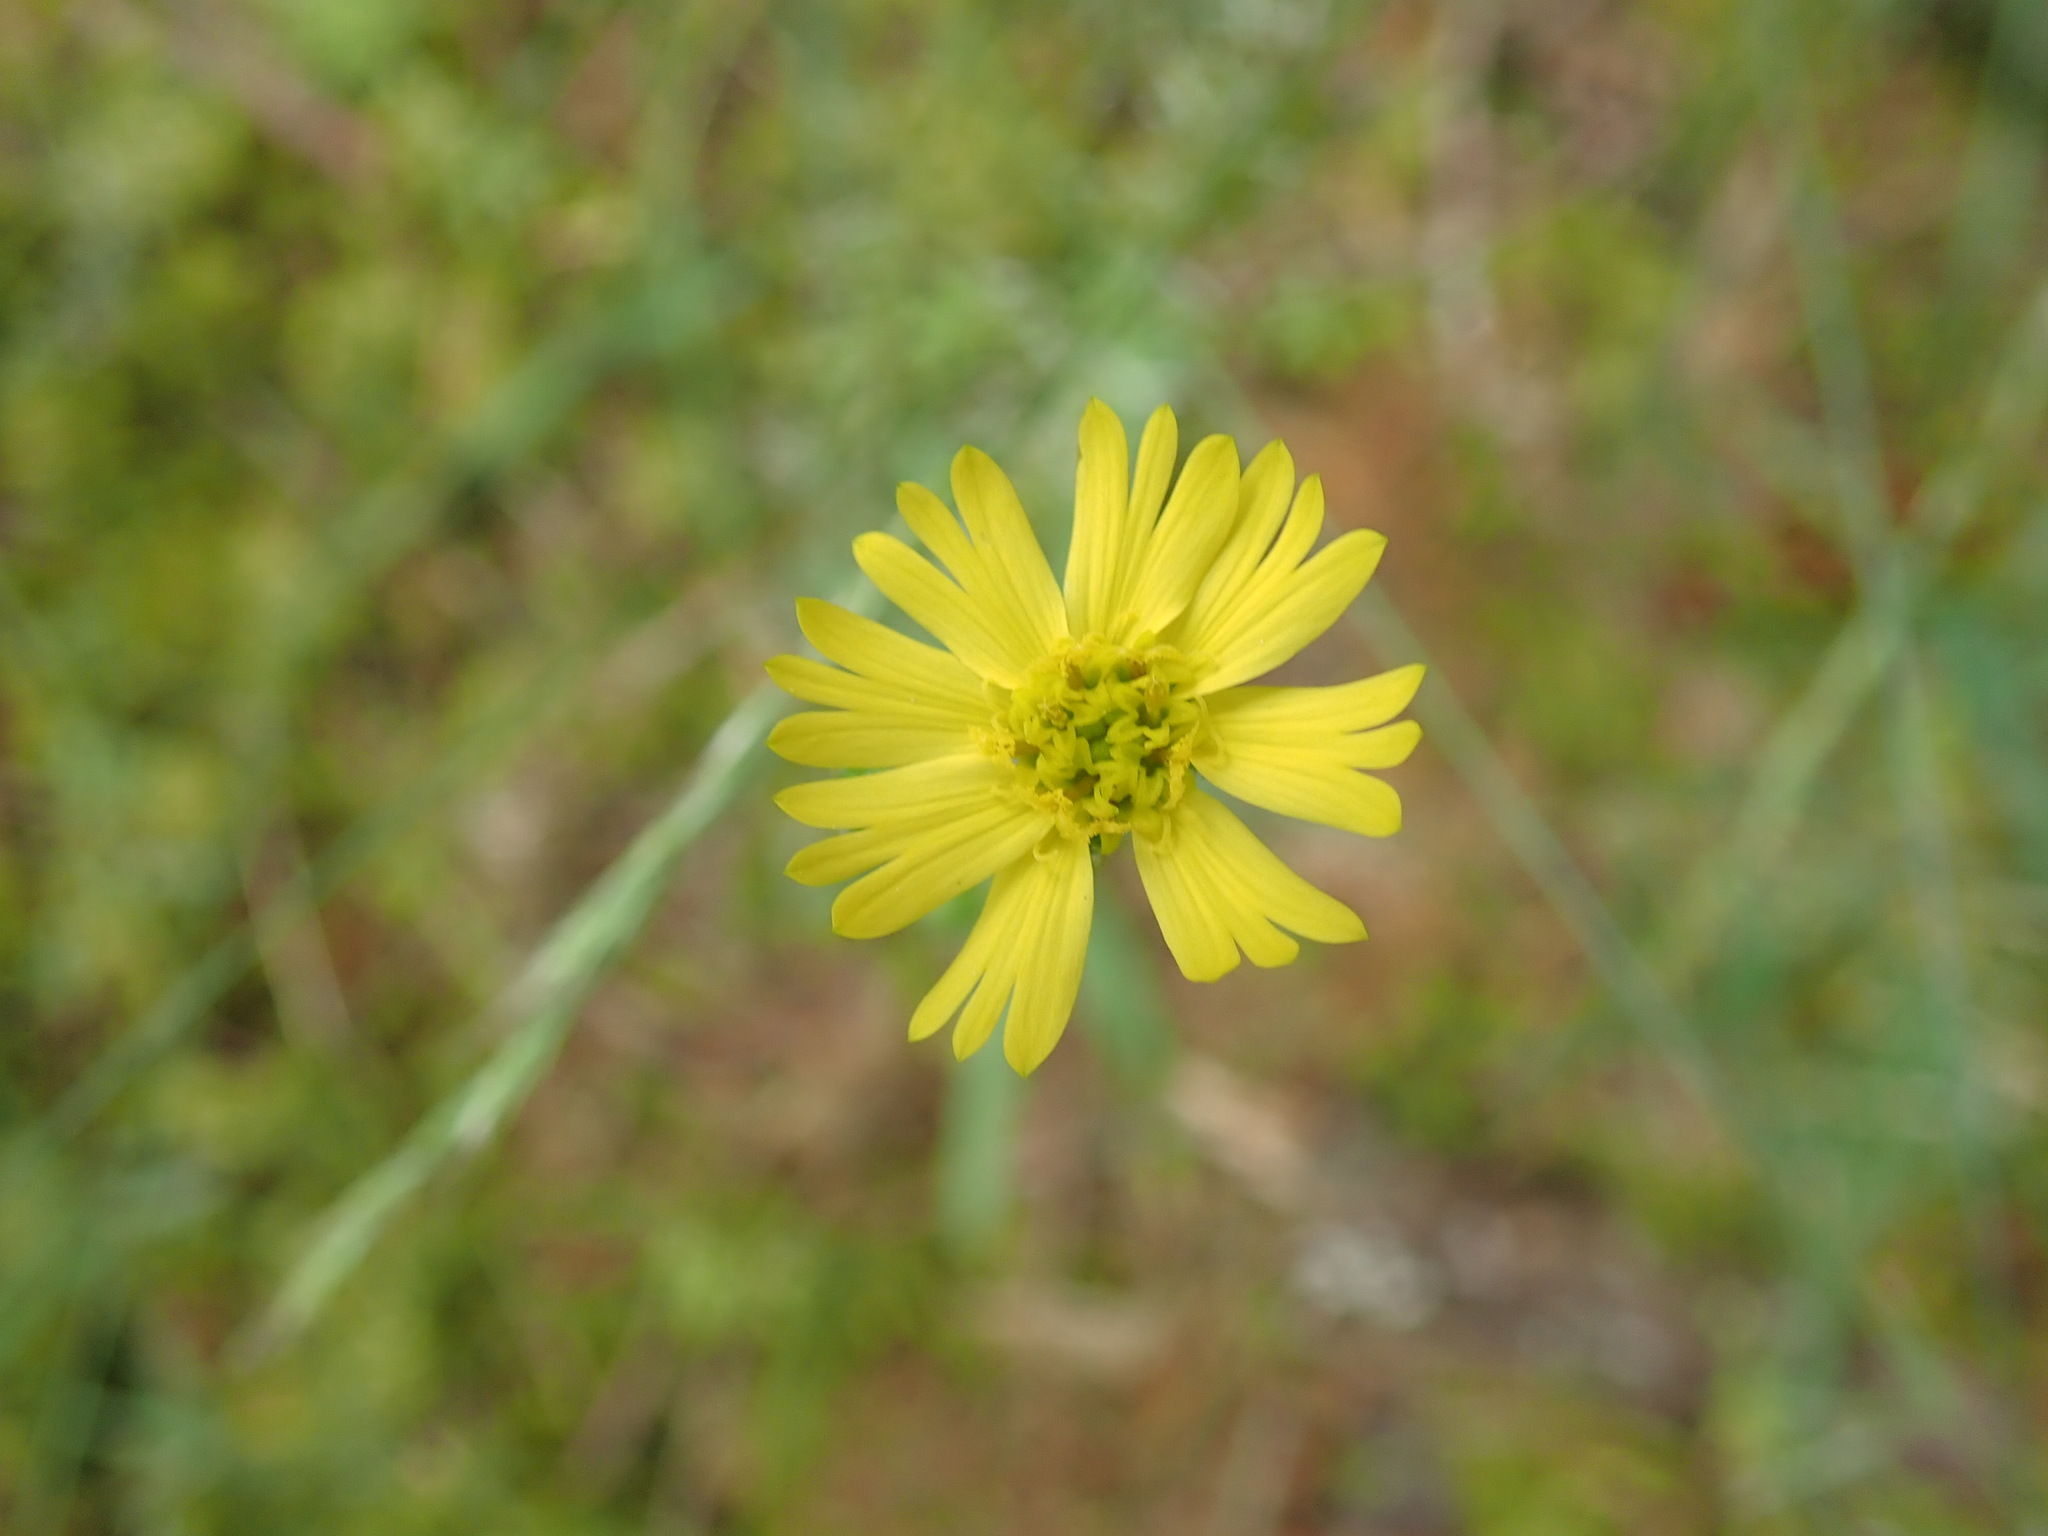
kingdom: Plantae
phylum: Tracheophyta
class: Magnoliopsida
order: Asterales
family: Asteraceae
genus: Anisocarpus
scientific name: Anisocarpus madioides
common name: Woodland madia
